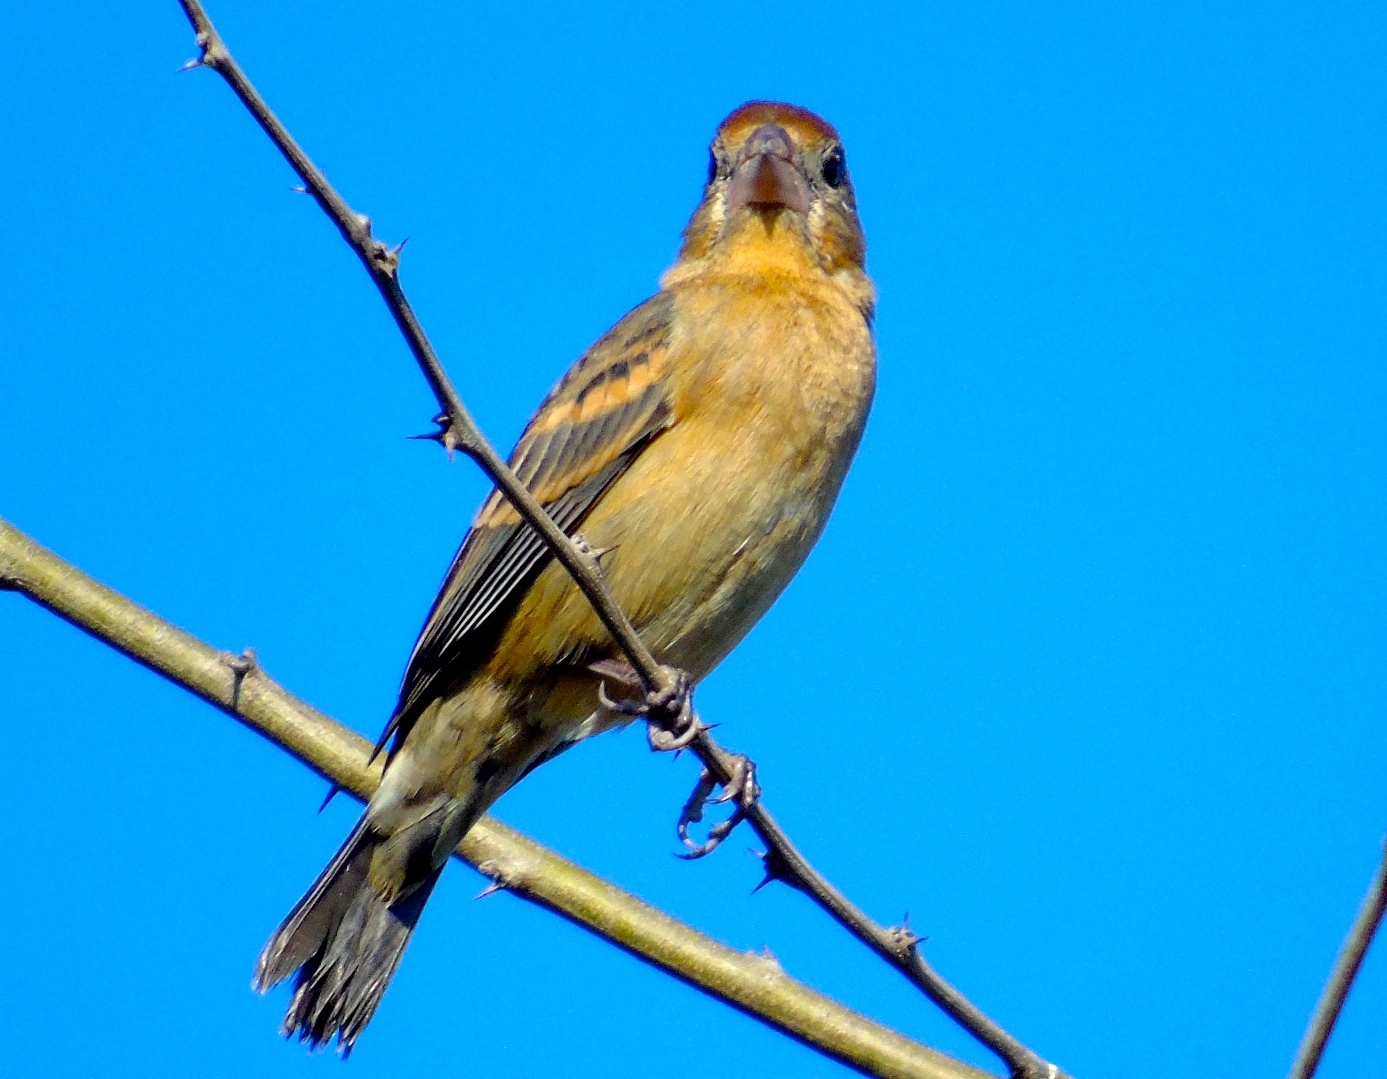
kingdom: Animalia
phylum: Chordata
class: Aves
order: Passeriformes
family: Cardinalidae
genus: Passerina
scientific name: Passerina caerulea
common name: Blue grosbeak
